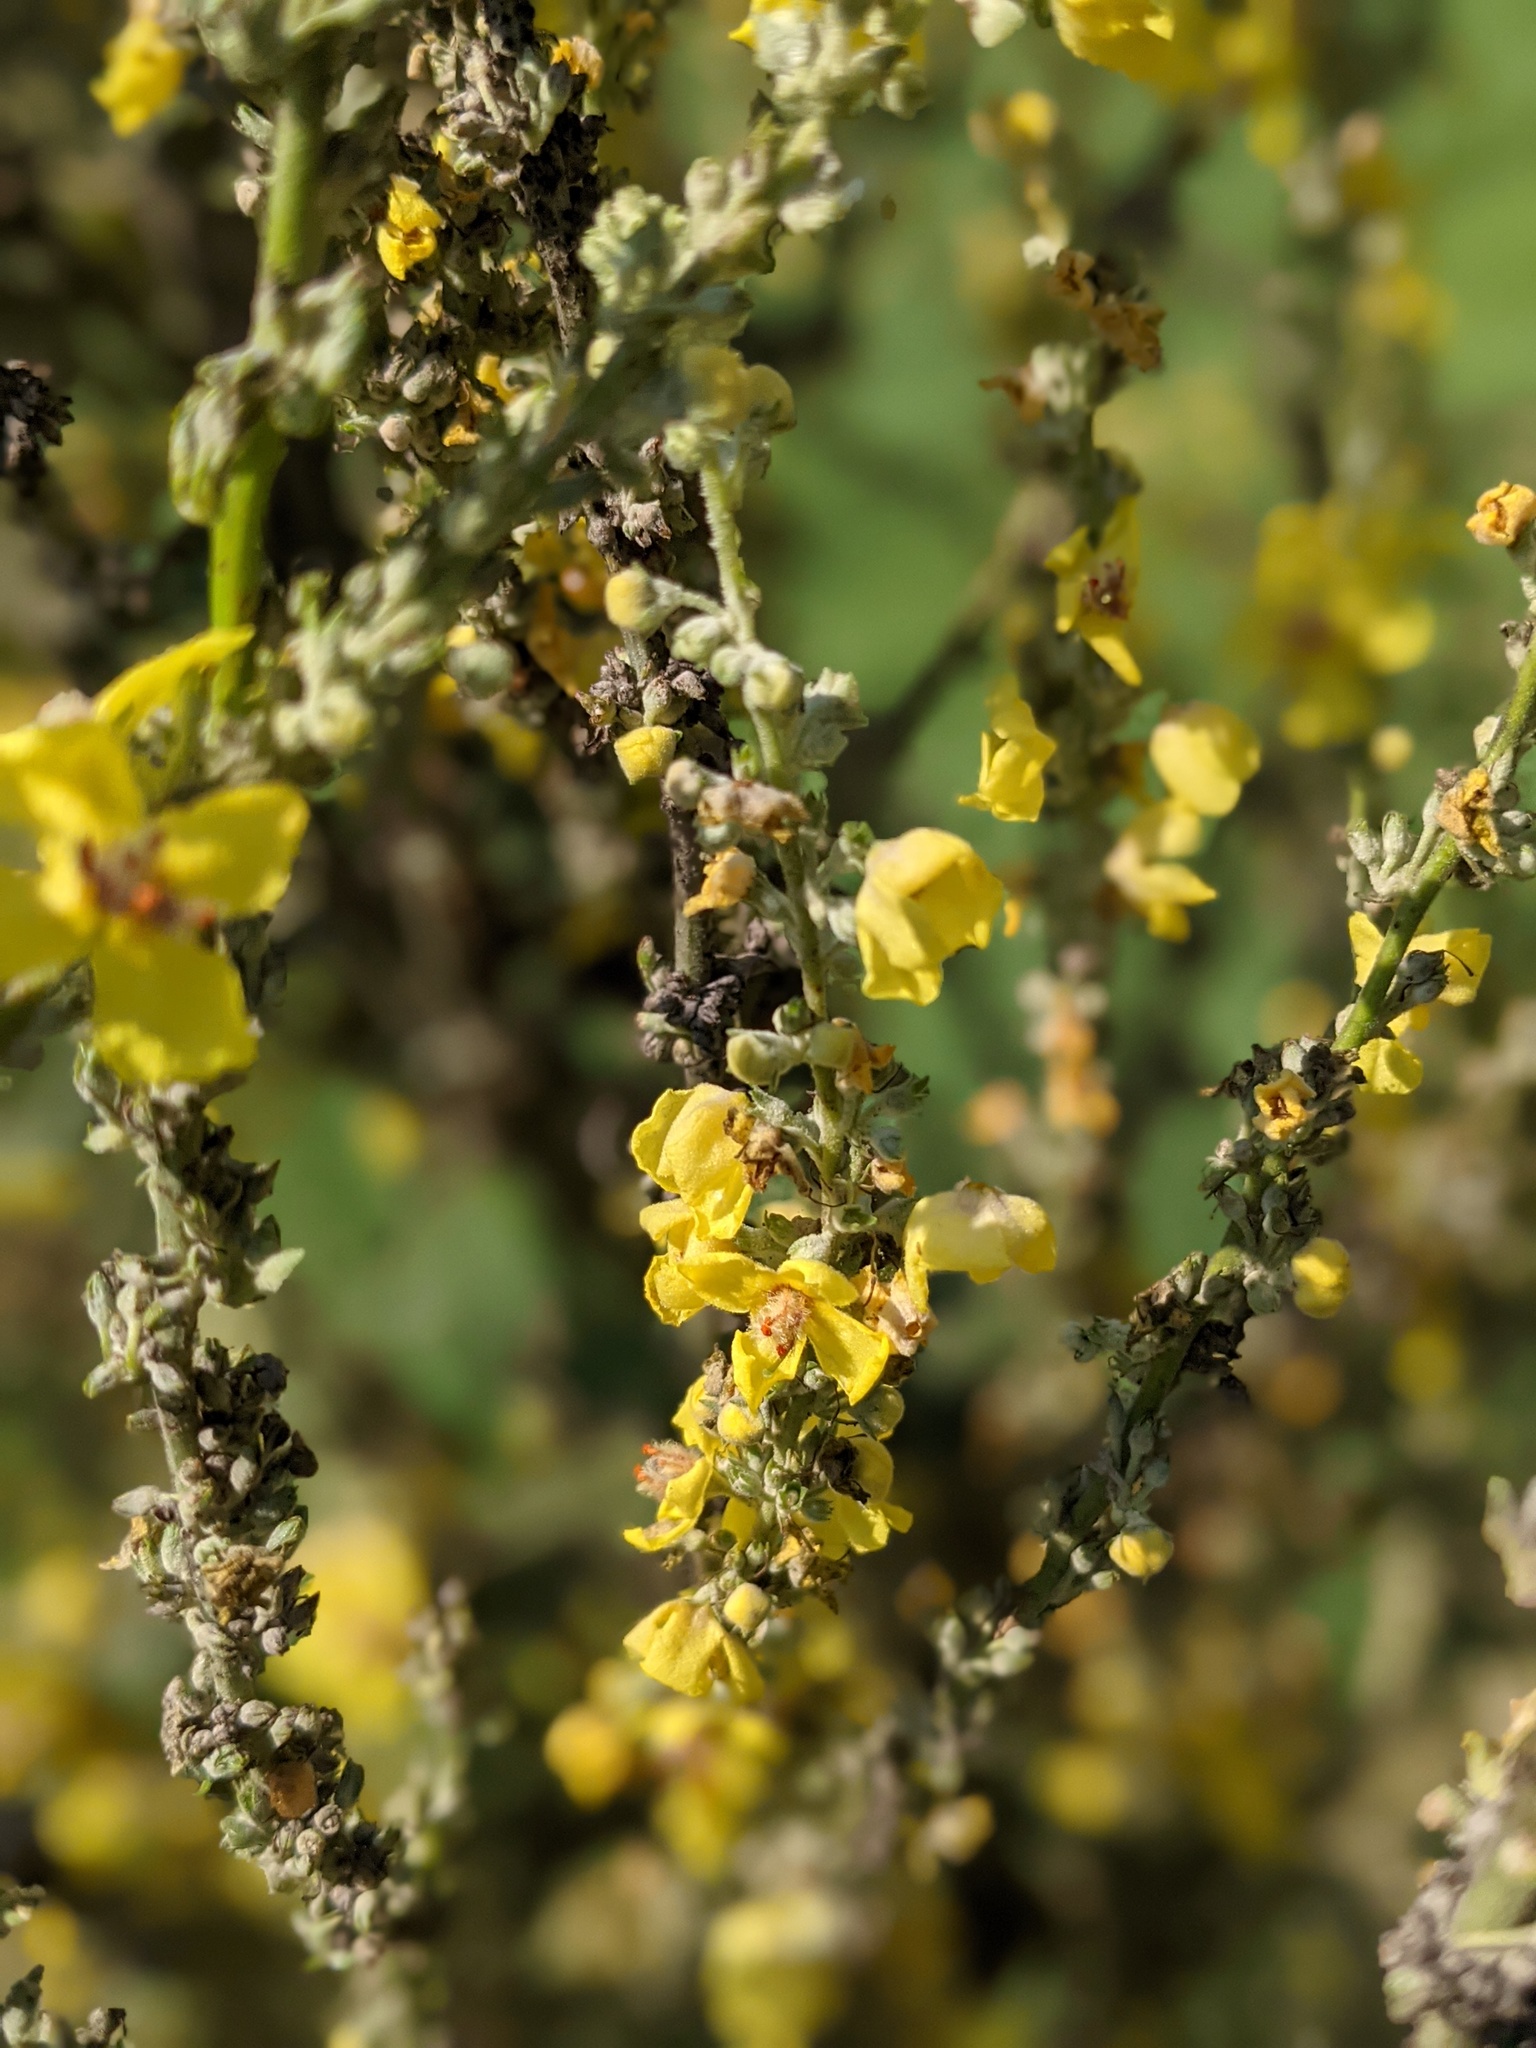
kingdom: Plantae
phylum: Tracheophyta
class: Magnoliopsida
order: Lamiales
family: Scrophulariaceae
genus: Verbascum
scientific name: Verbascum lychnitis
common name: White mullein
